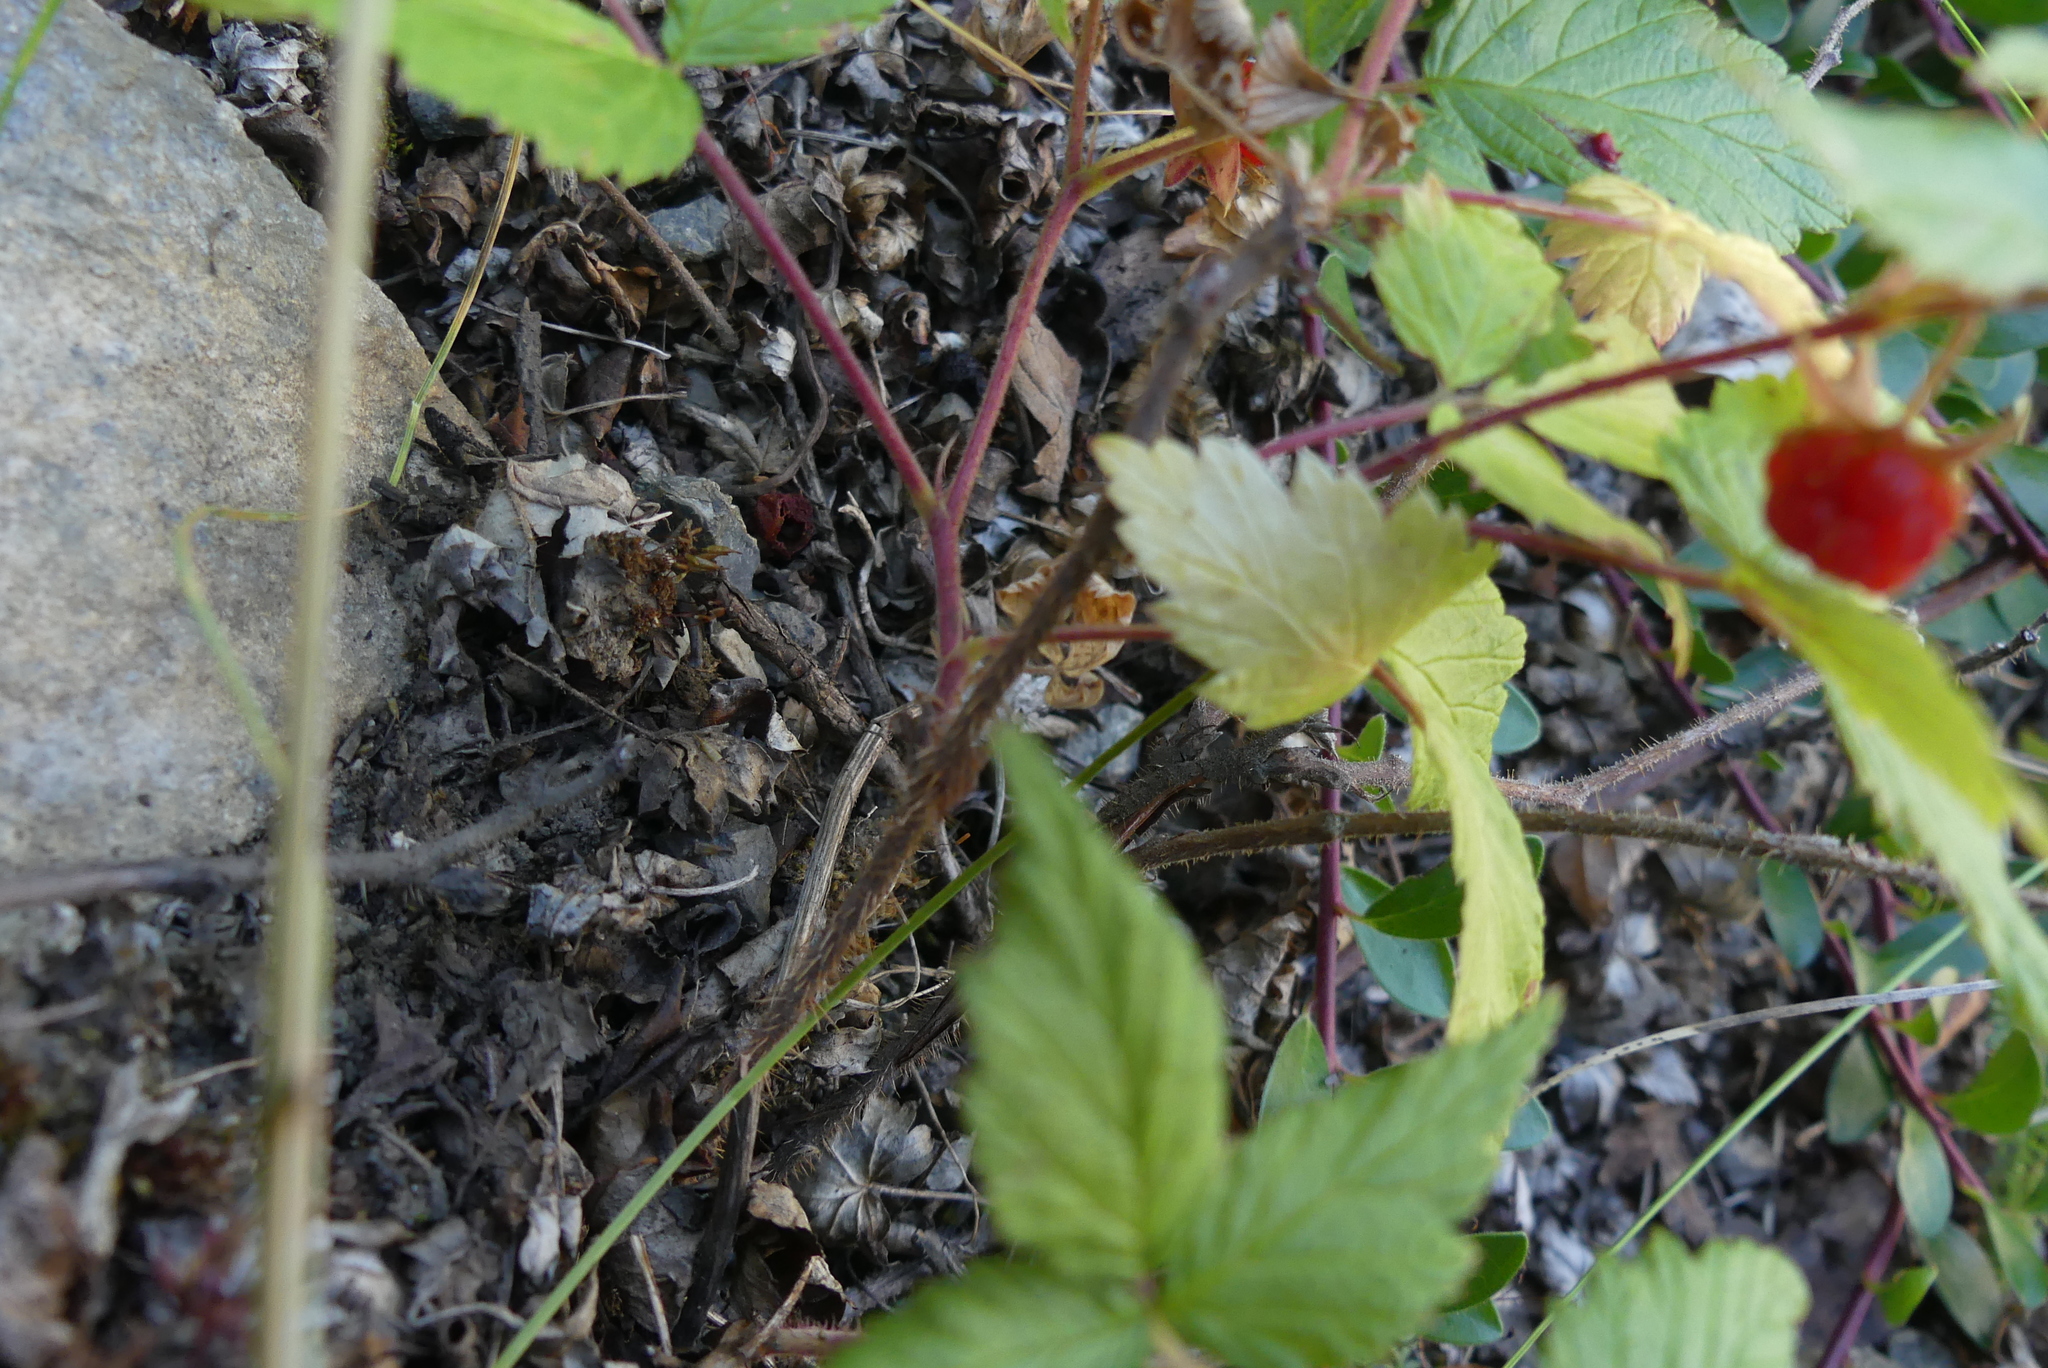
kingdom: Plantae
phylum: Tracheophyta
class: Magnoliopsida
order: Rosales
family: Rosaceae
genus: Rubus
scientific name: Rubus idaeus
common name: Raspberry
